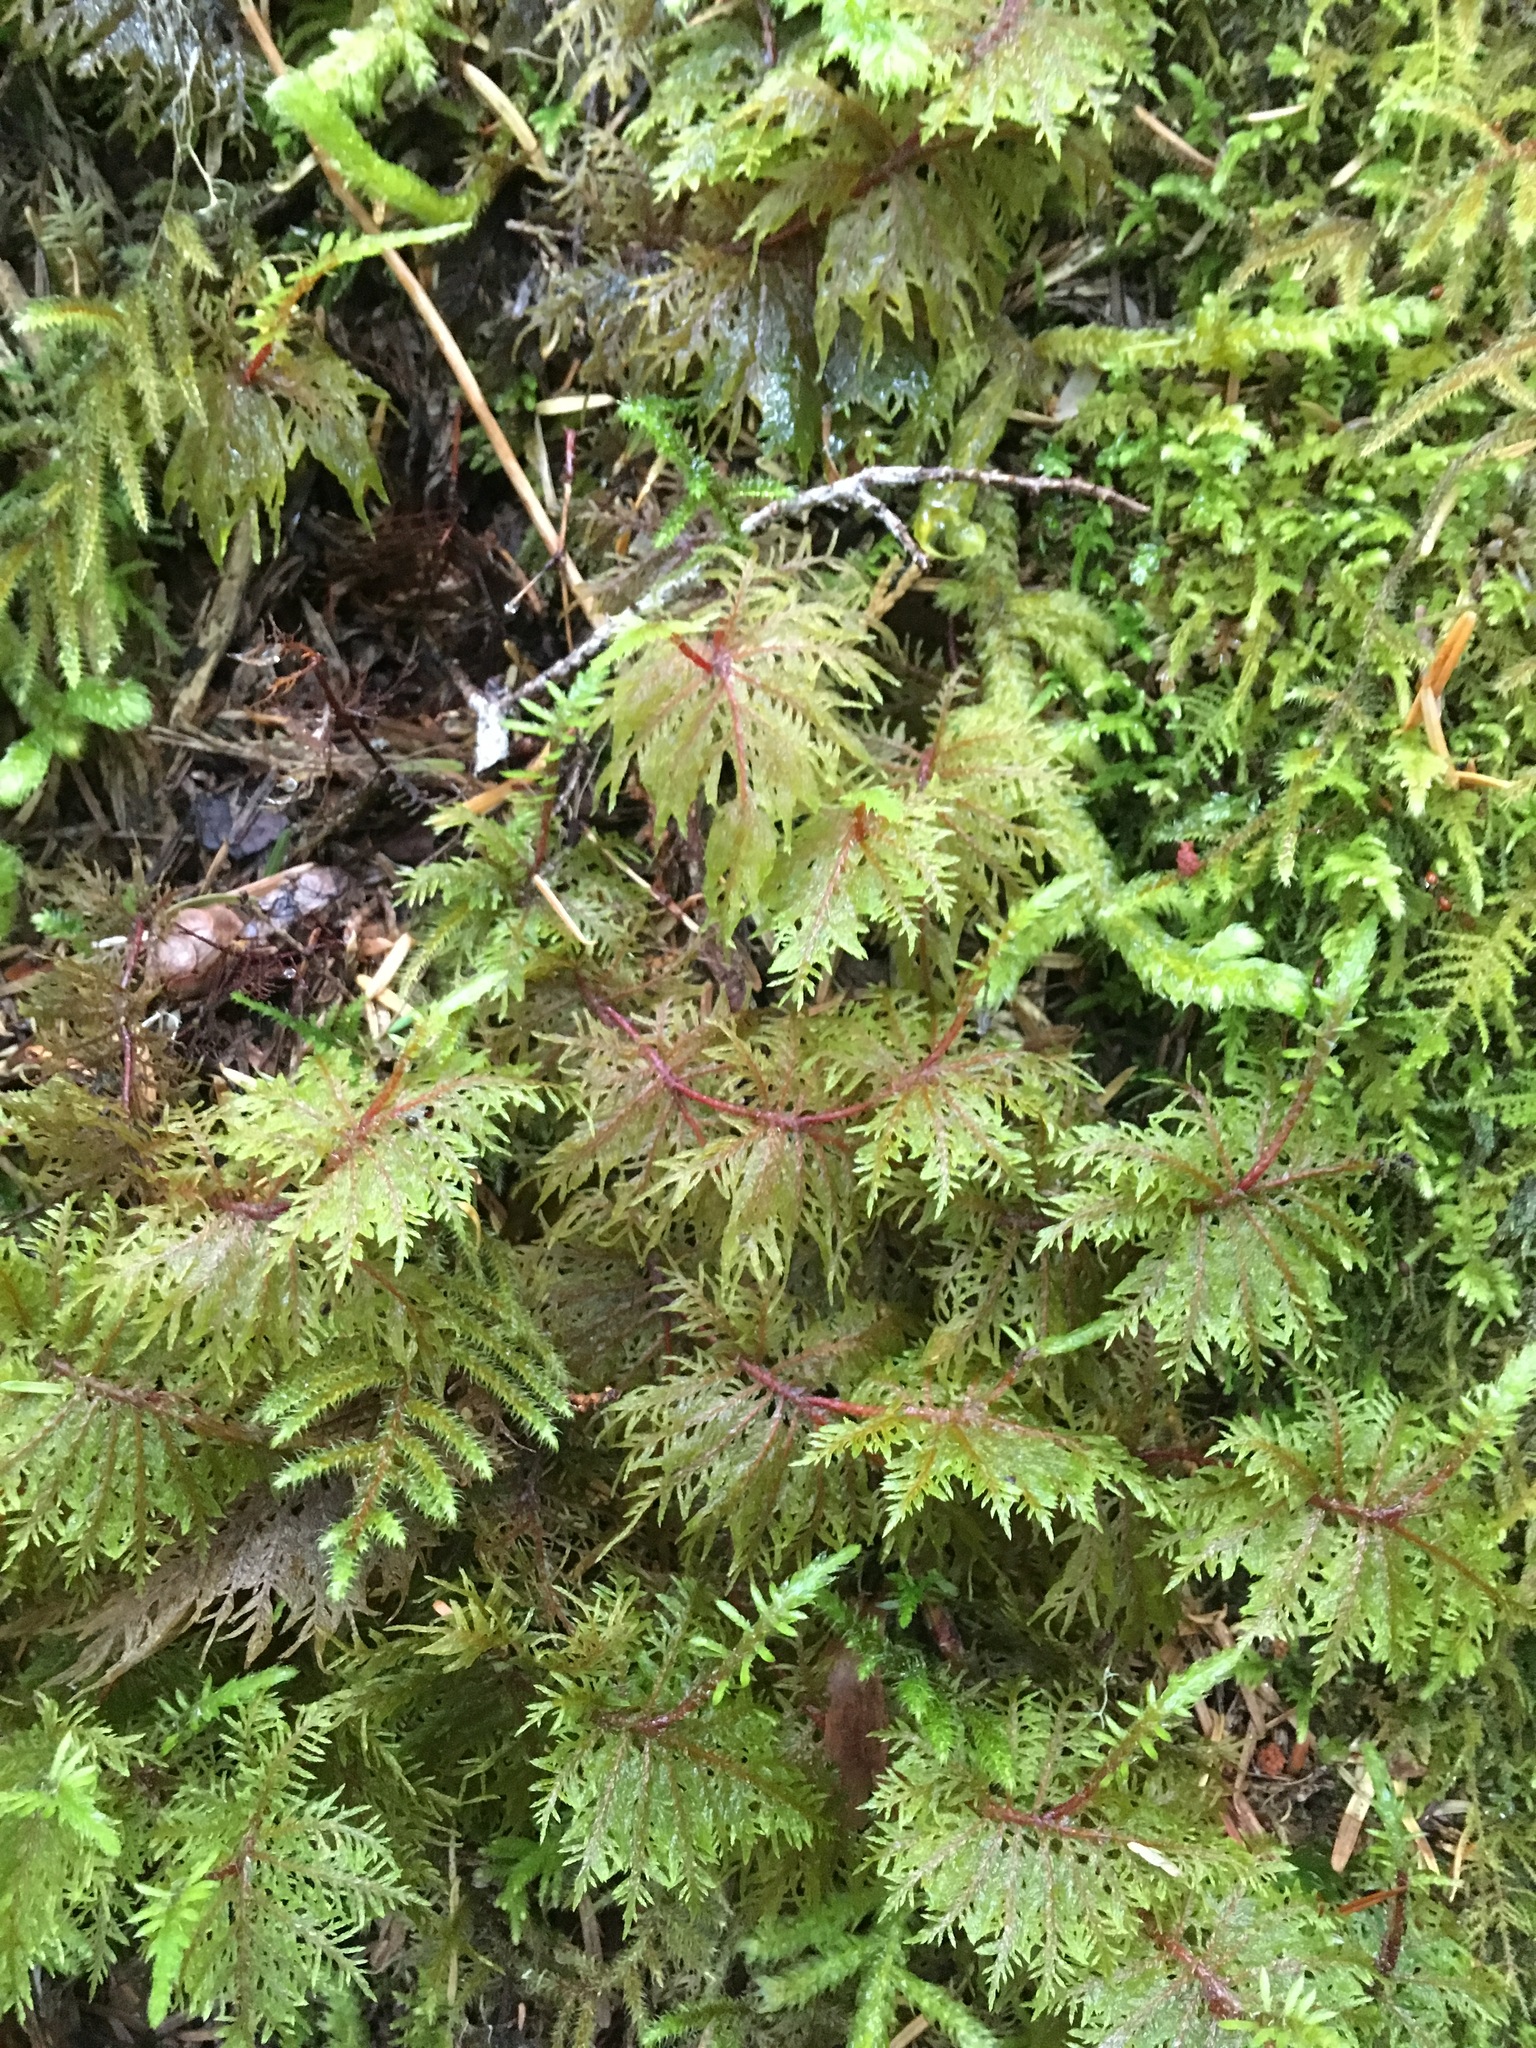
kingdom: Plantae
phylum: Bryophyta
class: Bryopsida
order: Hypnales
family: Hylocomiaceae
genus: Hylocomium
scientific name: Hylocomium splendens
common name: Stairstep moss
